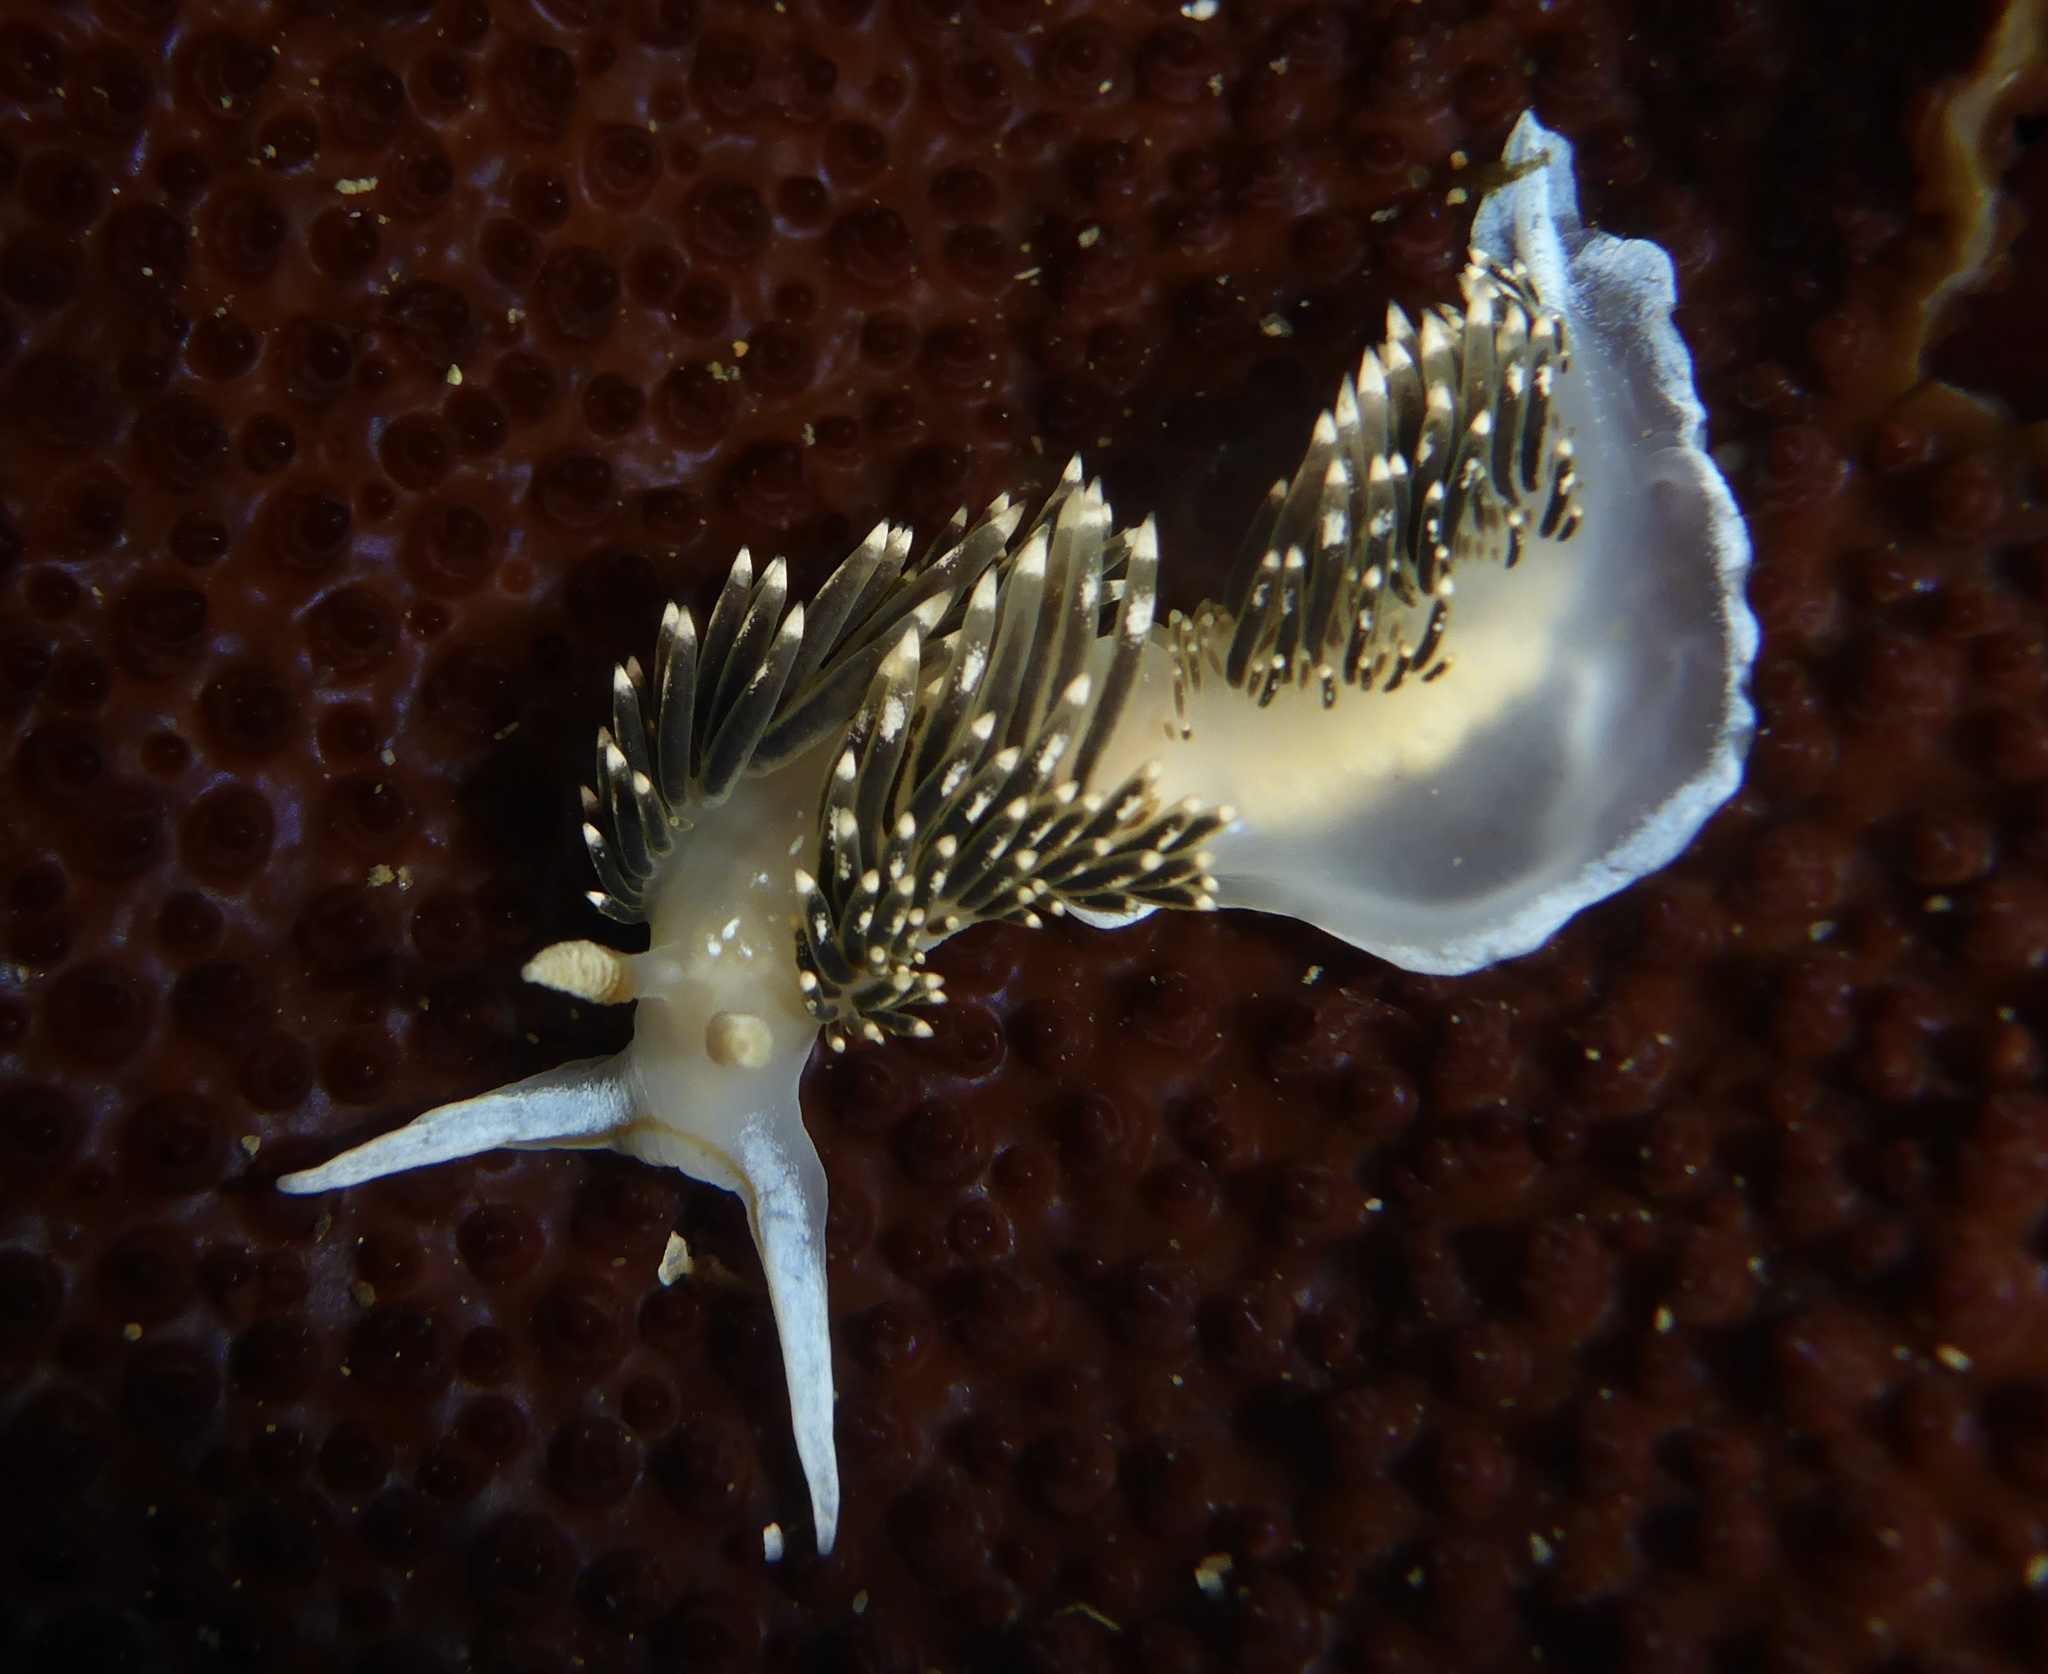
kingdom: Animalia
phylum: Mollusca
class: Gastropoda
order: Nudibranchia
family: Facelinidae
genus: Phidiana
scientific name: Phidiana hiltoni
